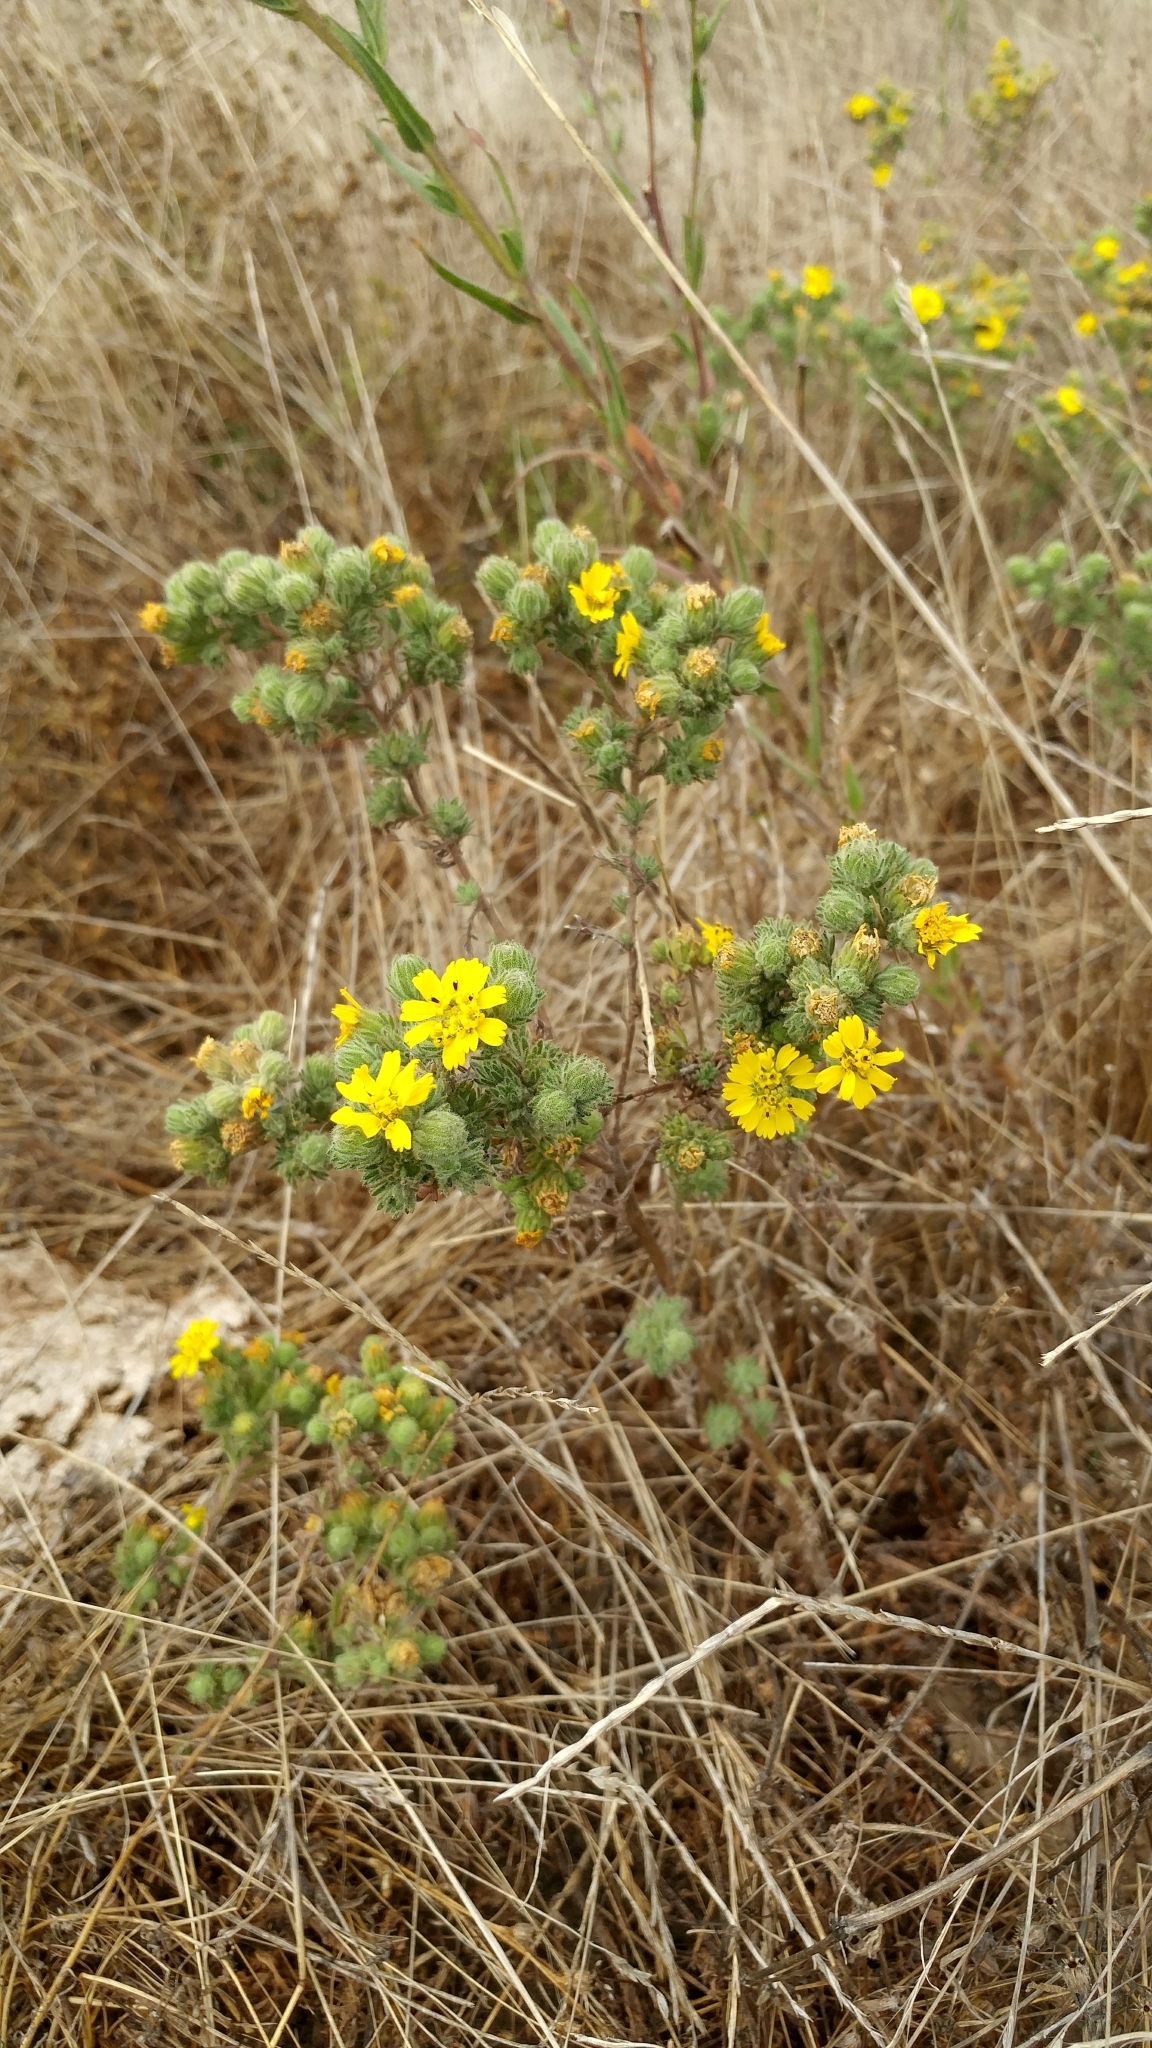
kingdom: Plantae
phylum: Tracheophyta
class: Magnoliopsida
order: Asterales
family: Asteraceae
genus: Deinandra
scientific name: Deinandra increscens
